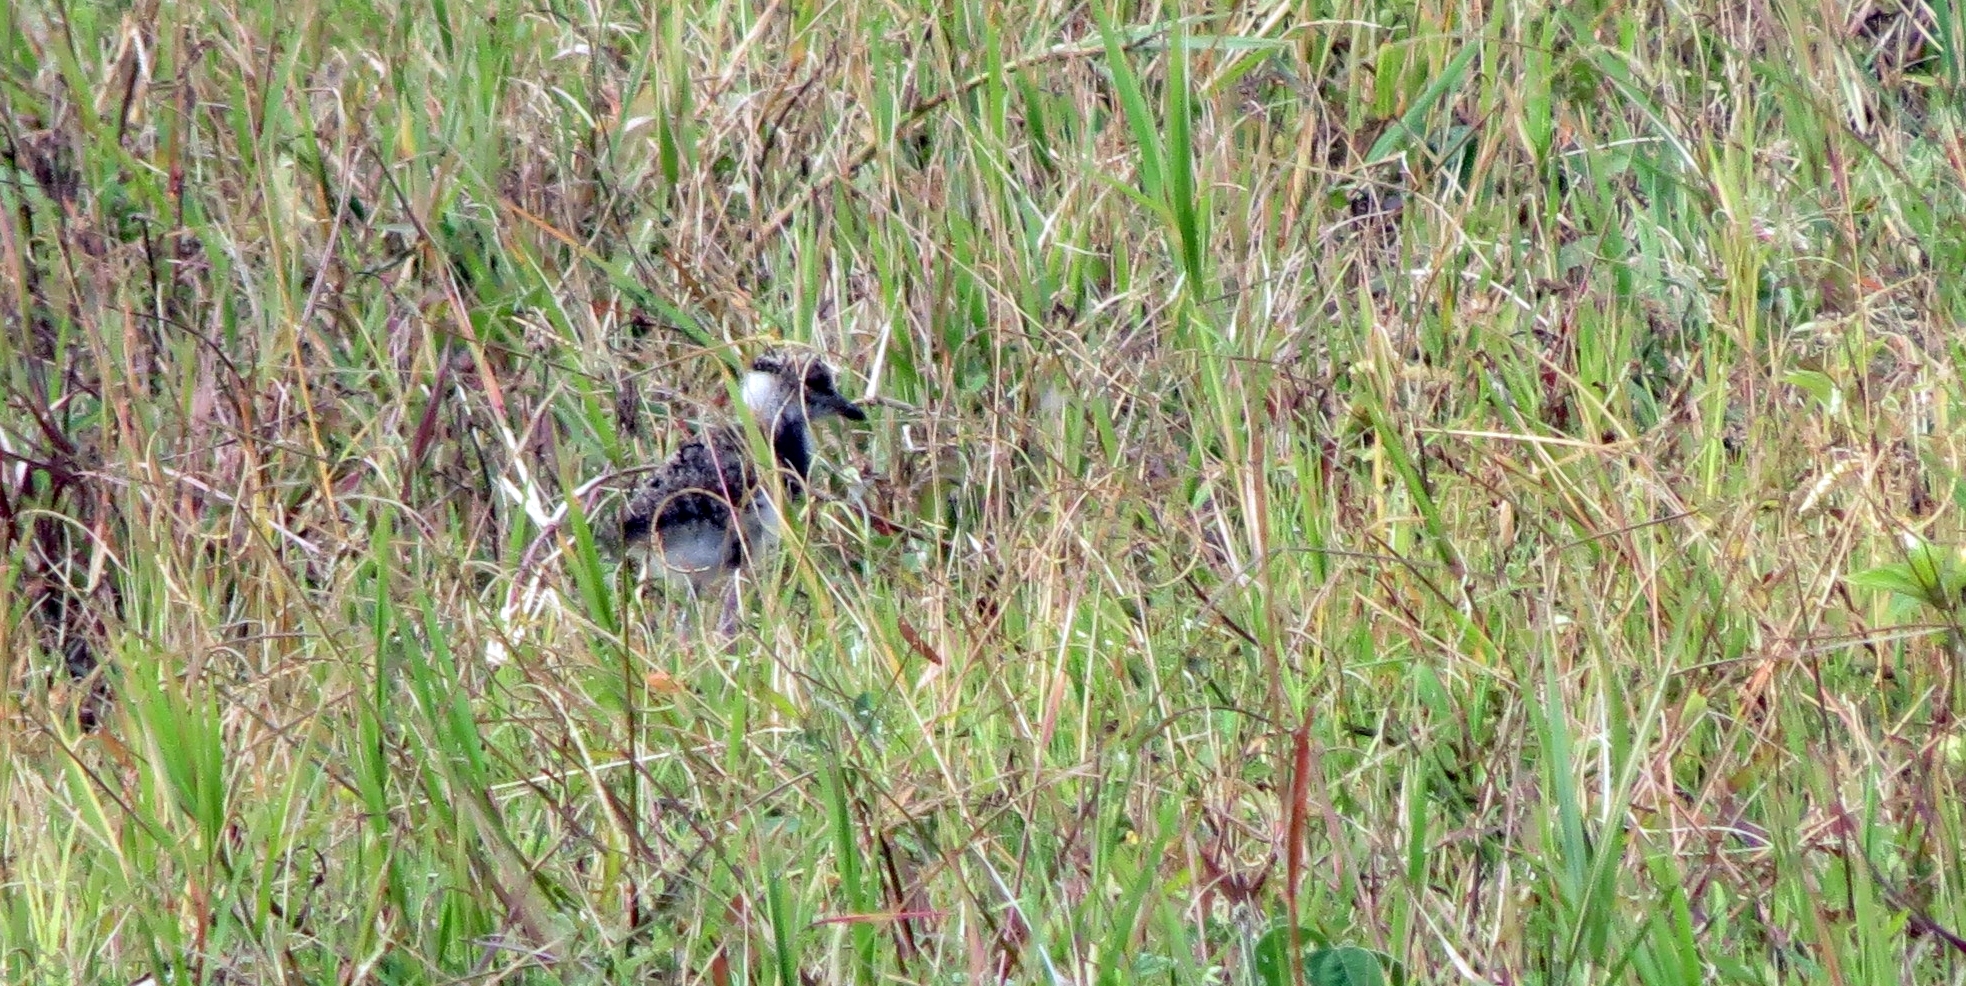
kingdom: Animalia
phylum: Chordata
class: Aves
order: Charadriiformes
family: Charadriidae
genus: Vanellus
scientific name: Vanellus chilensis
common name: Southern lapwing
